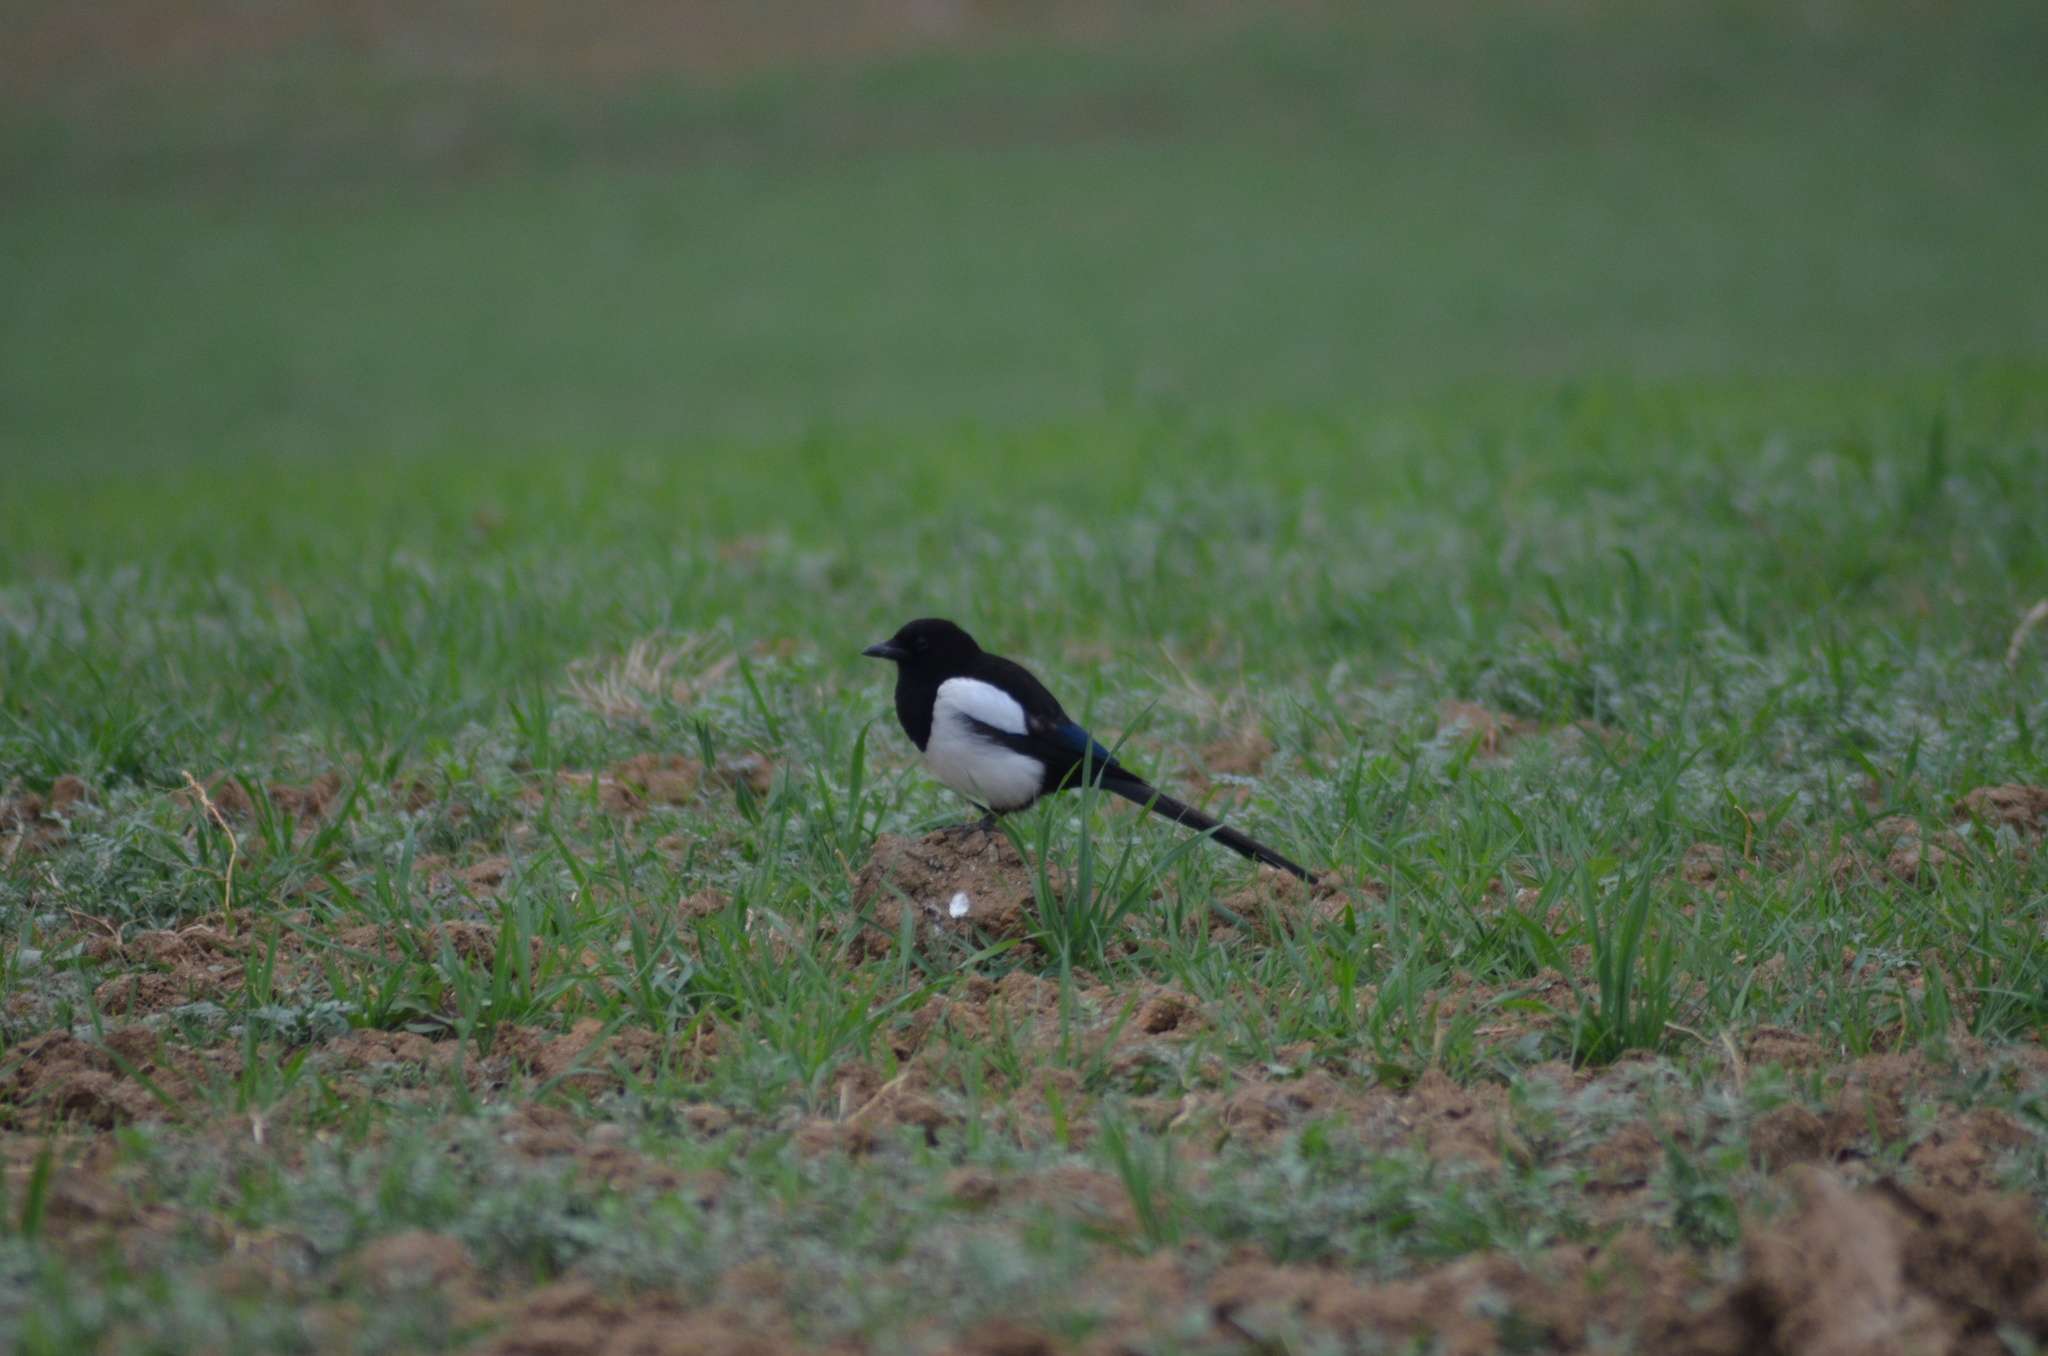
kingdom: Animalia
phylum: Chordata
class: Aves
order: Passeriformes
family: Corvidae
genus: Pica
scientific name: Pica pica
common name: Eurasian magpie
